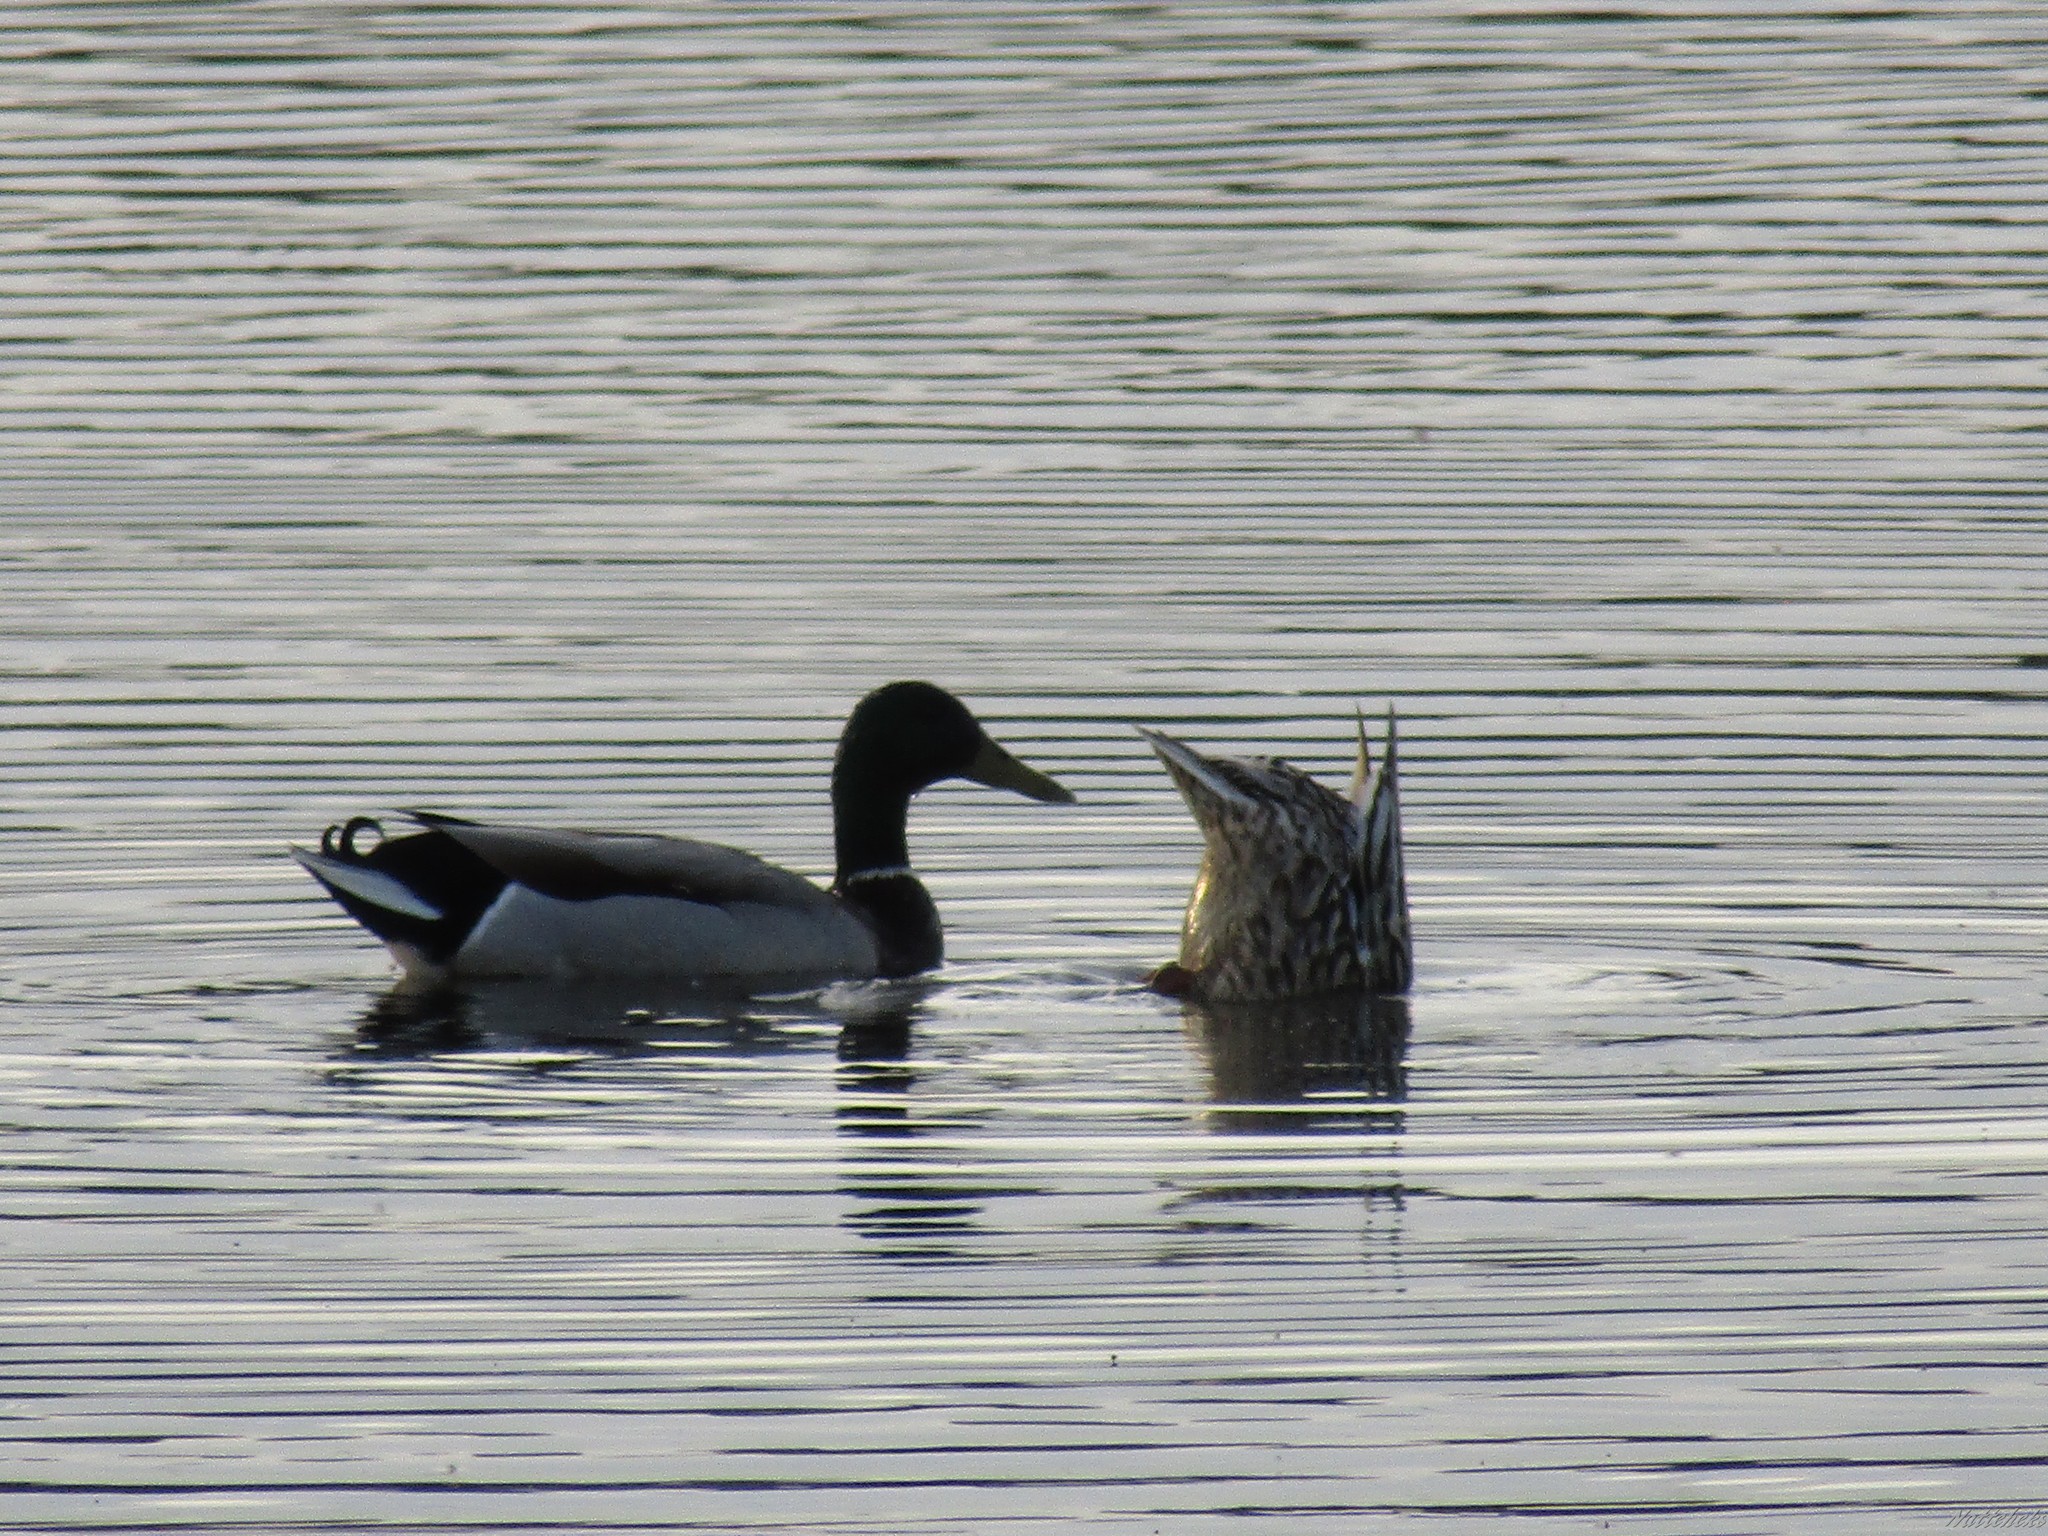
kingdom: Animalia
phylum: Chordata
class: Aves
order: Anseriformes
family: Anatidae
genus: Anas
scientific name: Anas platyrhynchos
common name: Mallard
